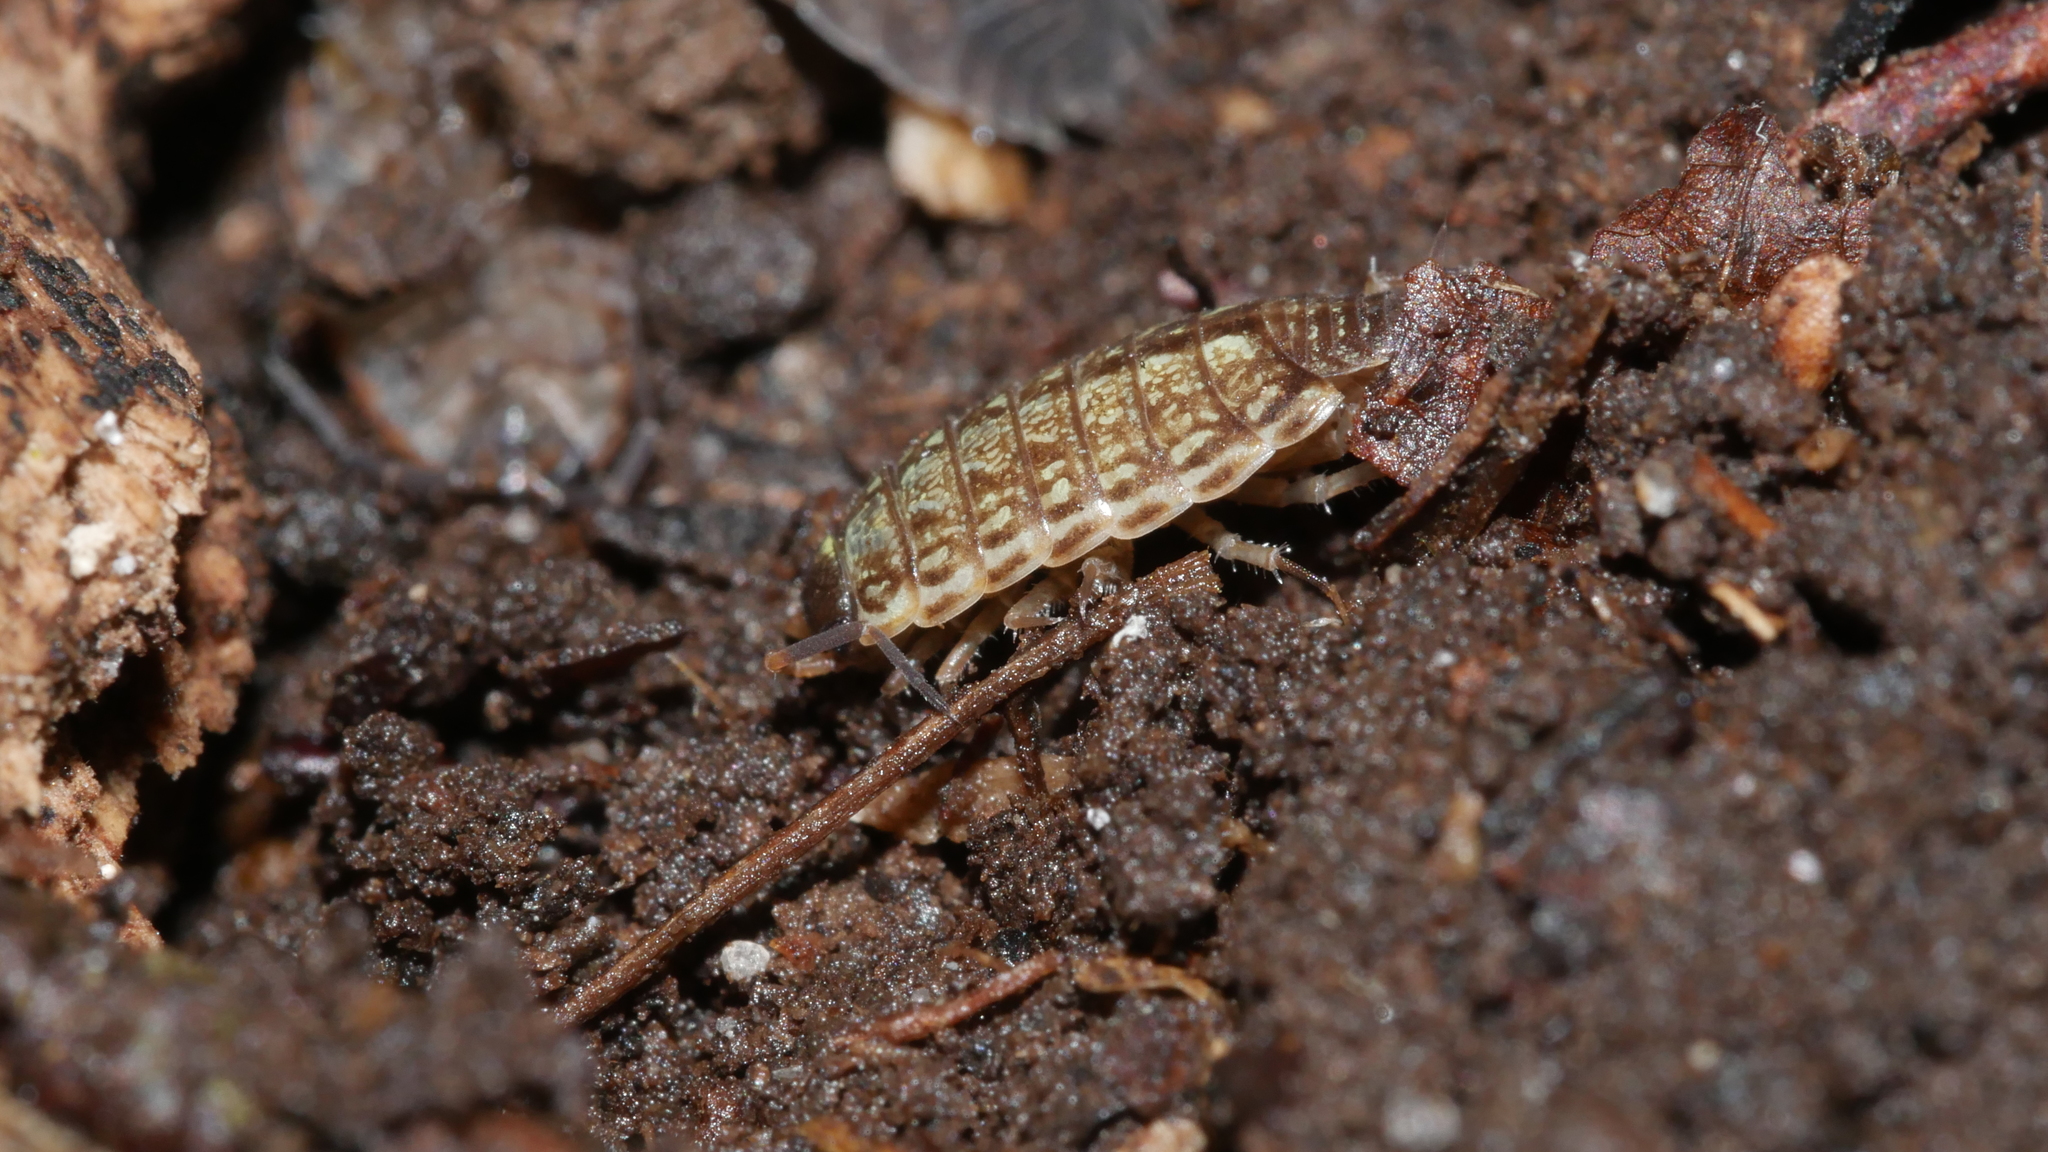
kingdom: Animalia
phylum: Arthropoda
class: Malacostraca
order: Isopoda
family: Philosciidae
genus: Philoscia
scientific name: Philoscia muscorum
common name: Common striped woodlouse
